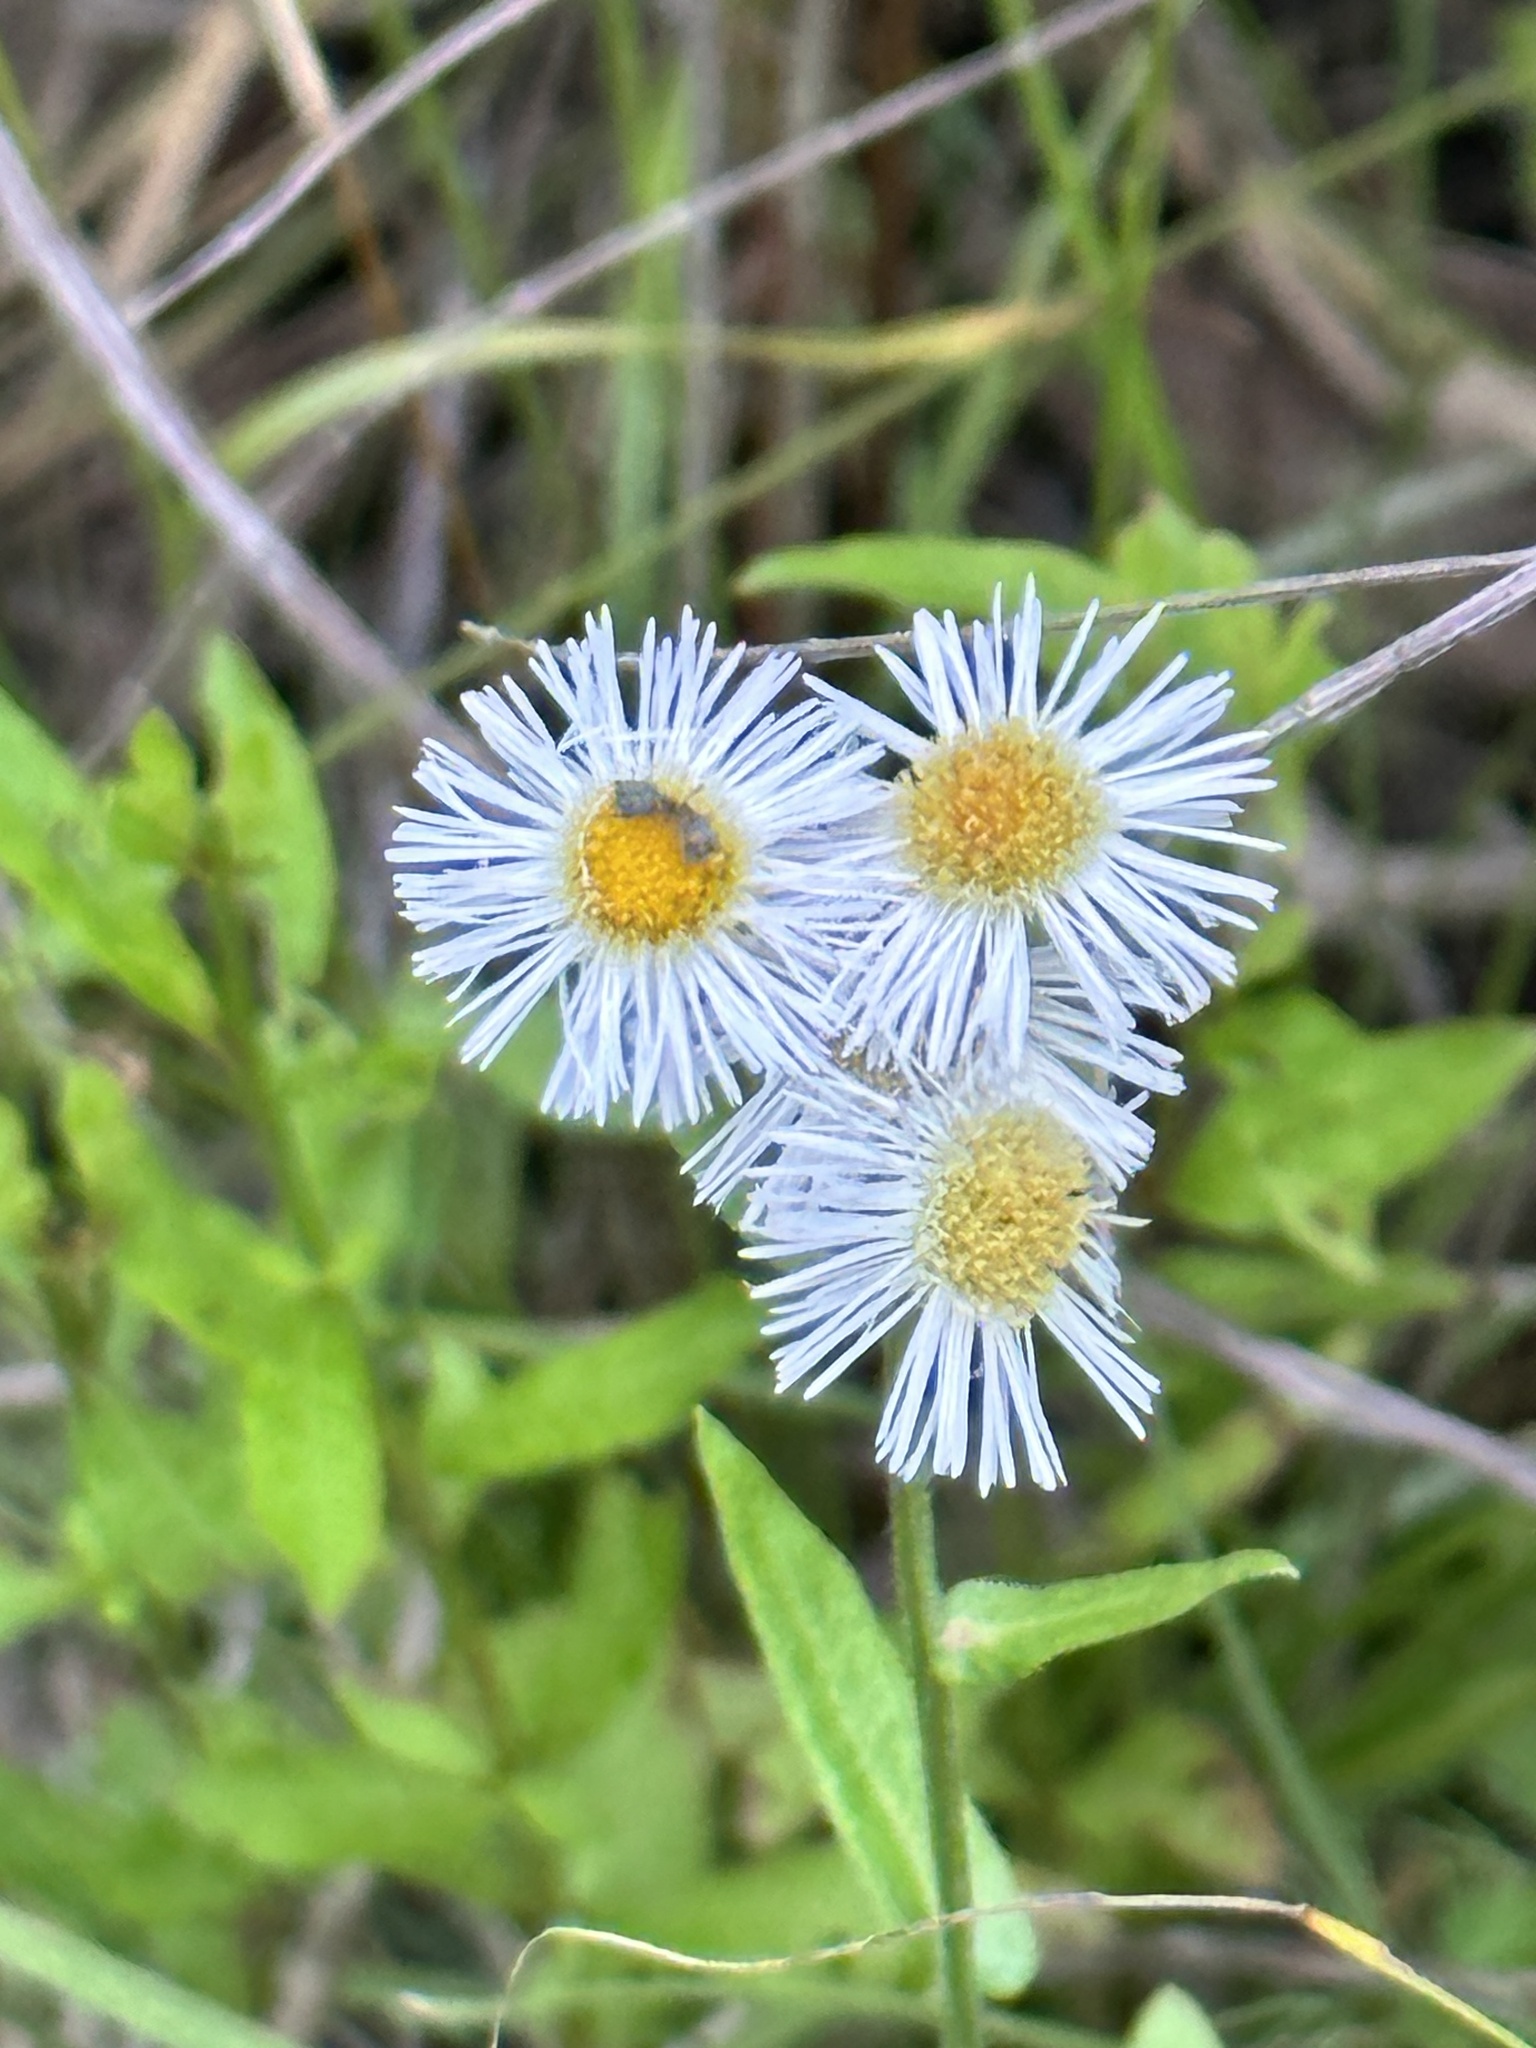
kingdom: Plantae
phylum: Tracheophyta
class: Magnoliopsida
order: Asterales
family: Asteraceae
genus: Erigeron
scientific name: Erigeron philadelphicus
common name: Robin's-plantain
